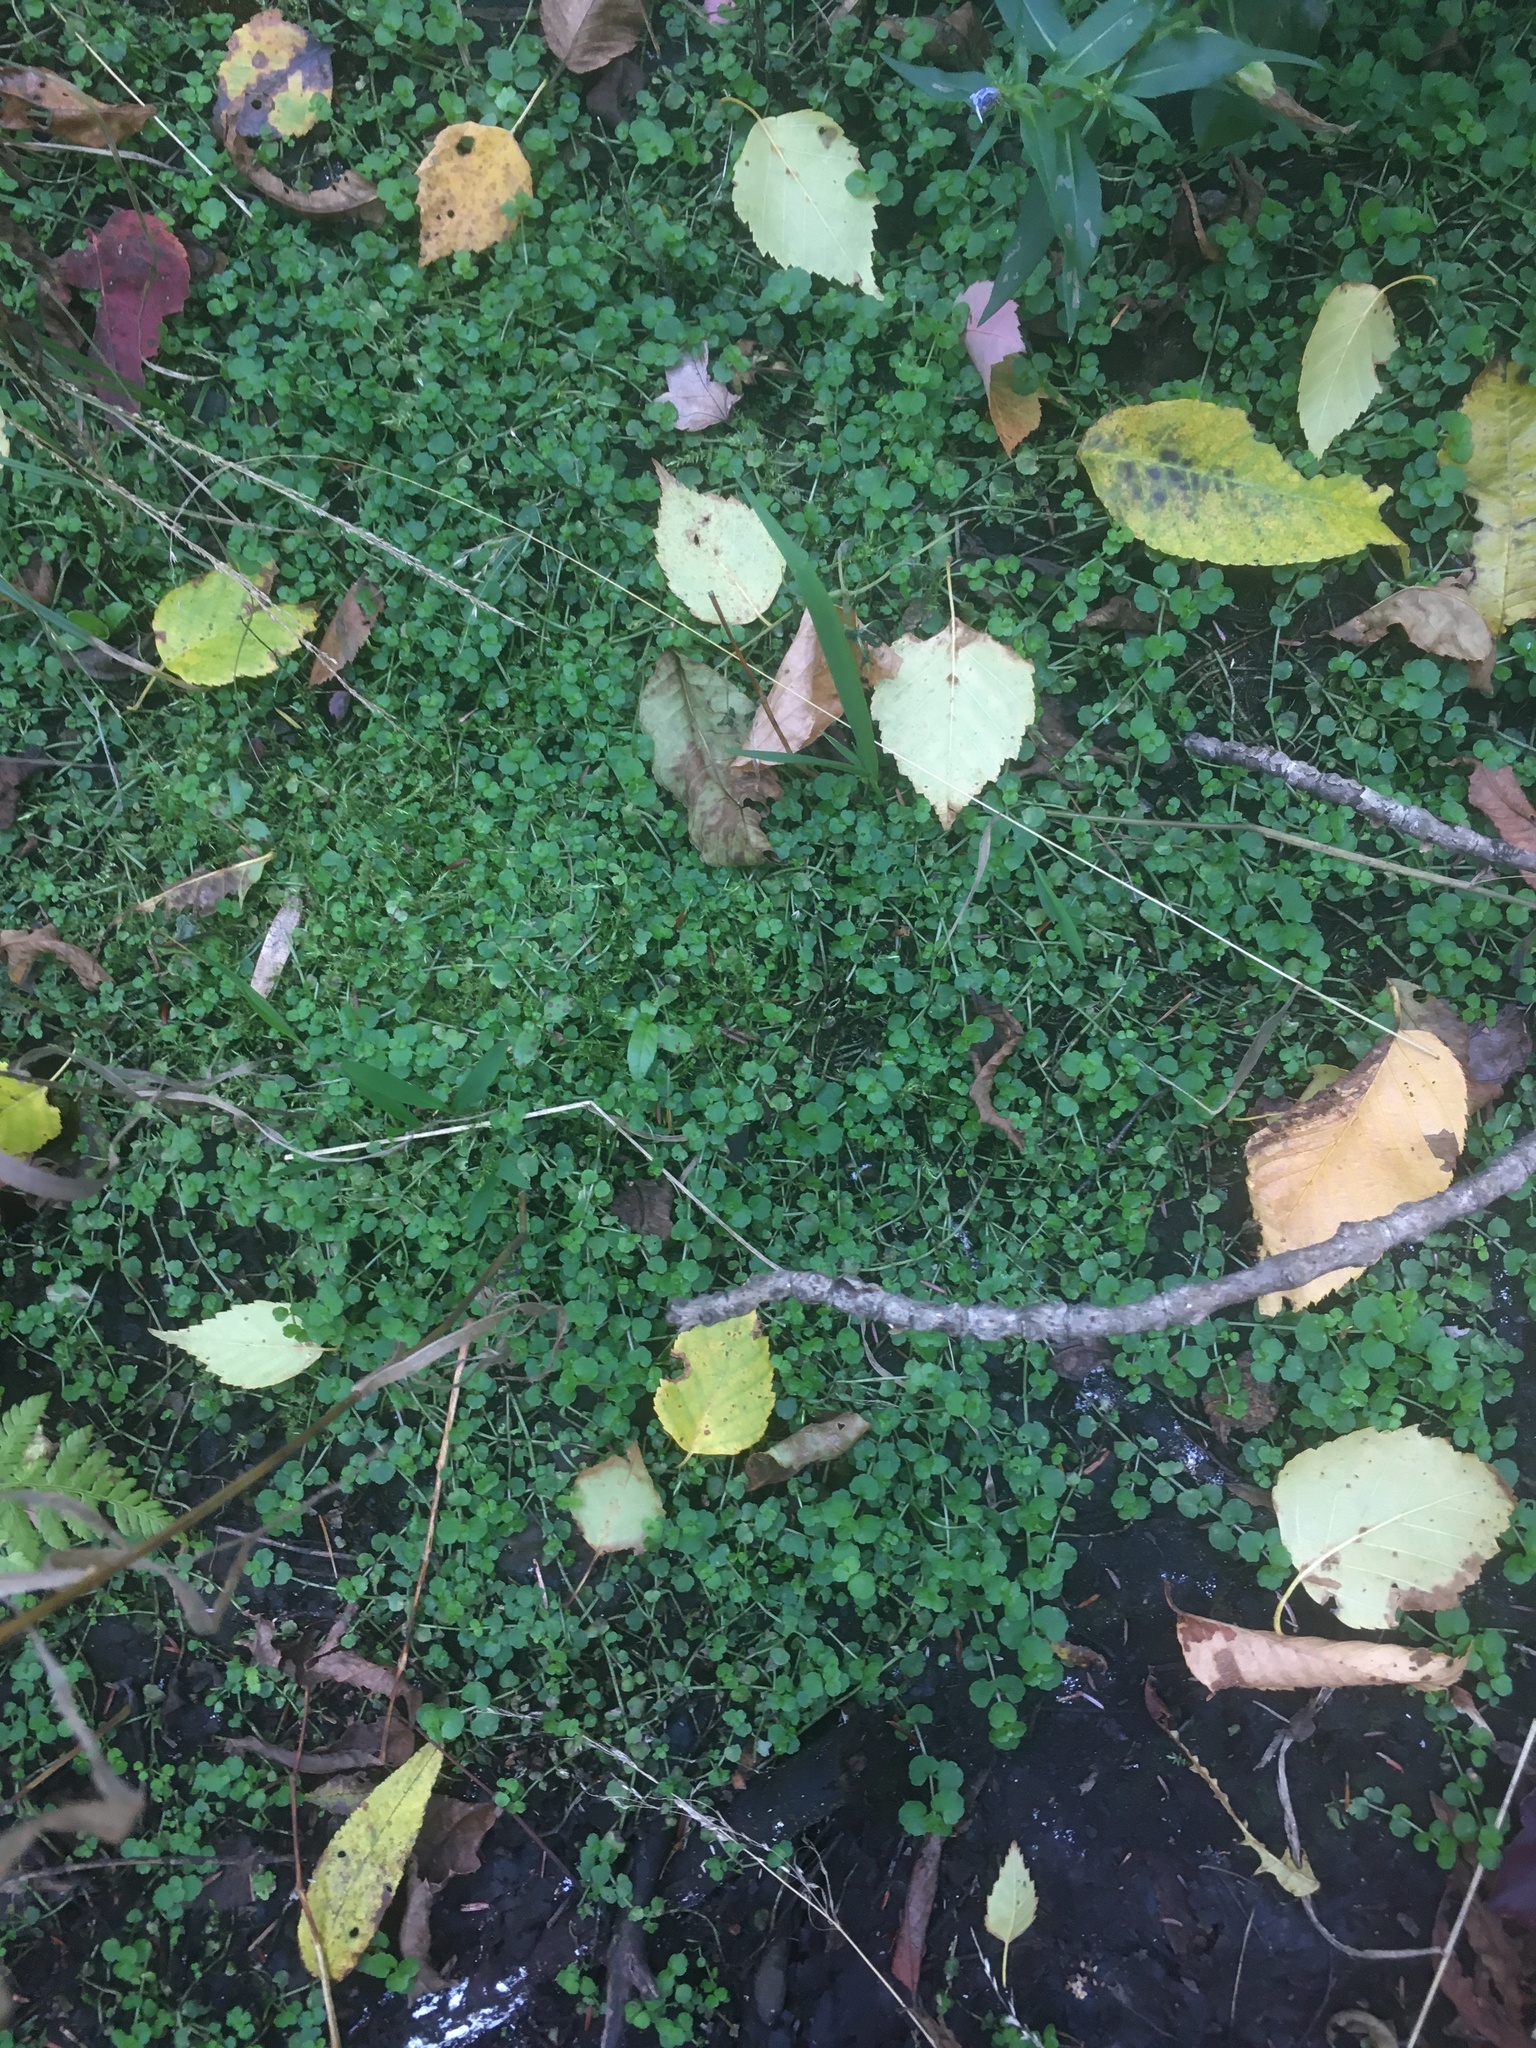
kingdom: Plantae
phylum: Tracheophyta
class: Magnoliopsida
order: Saxifragales
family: Saxifragaceae
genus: Chrysosplenium
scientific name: Chrysosplenium americanum
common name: American golden-saxifrage
